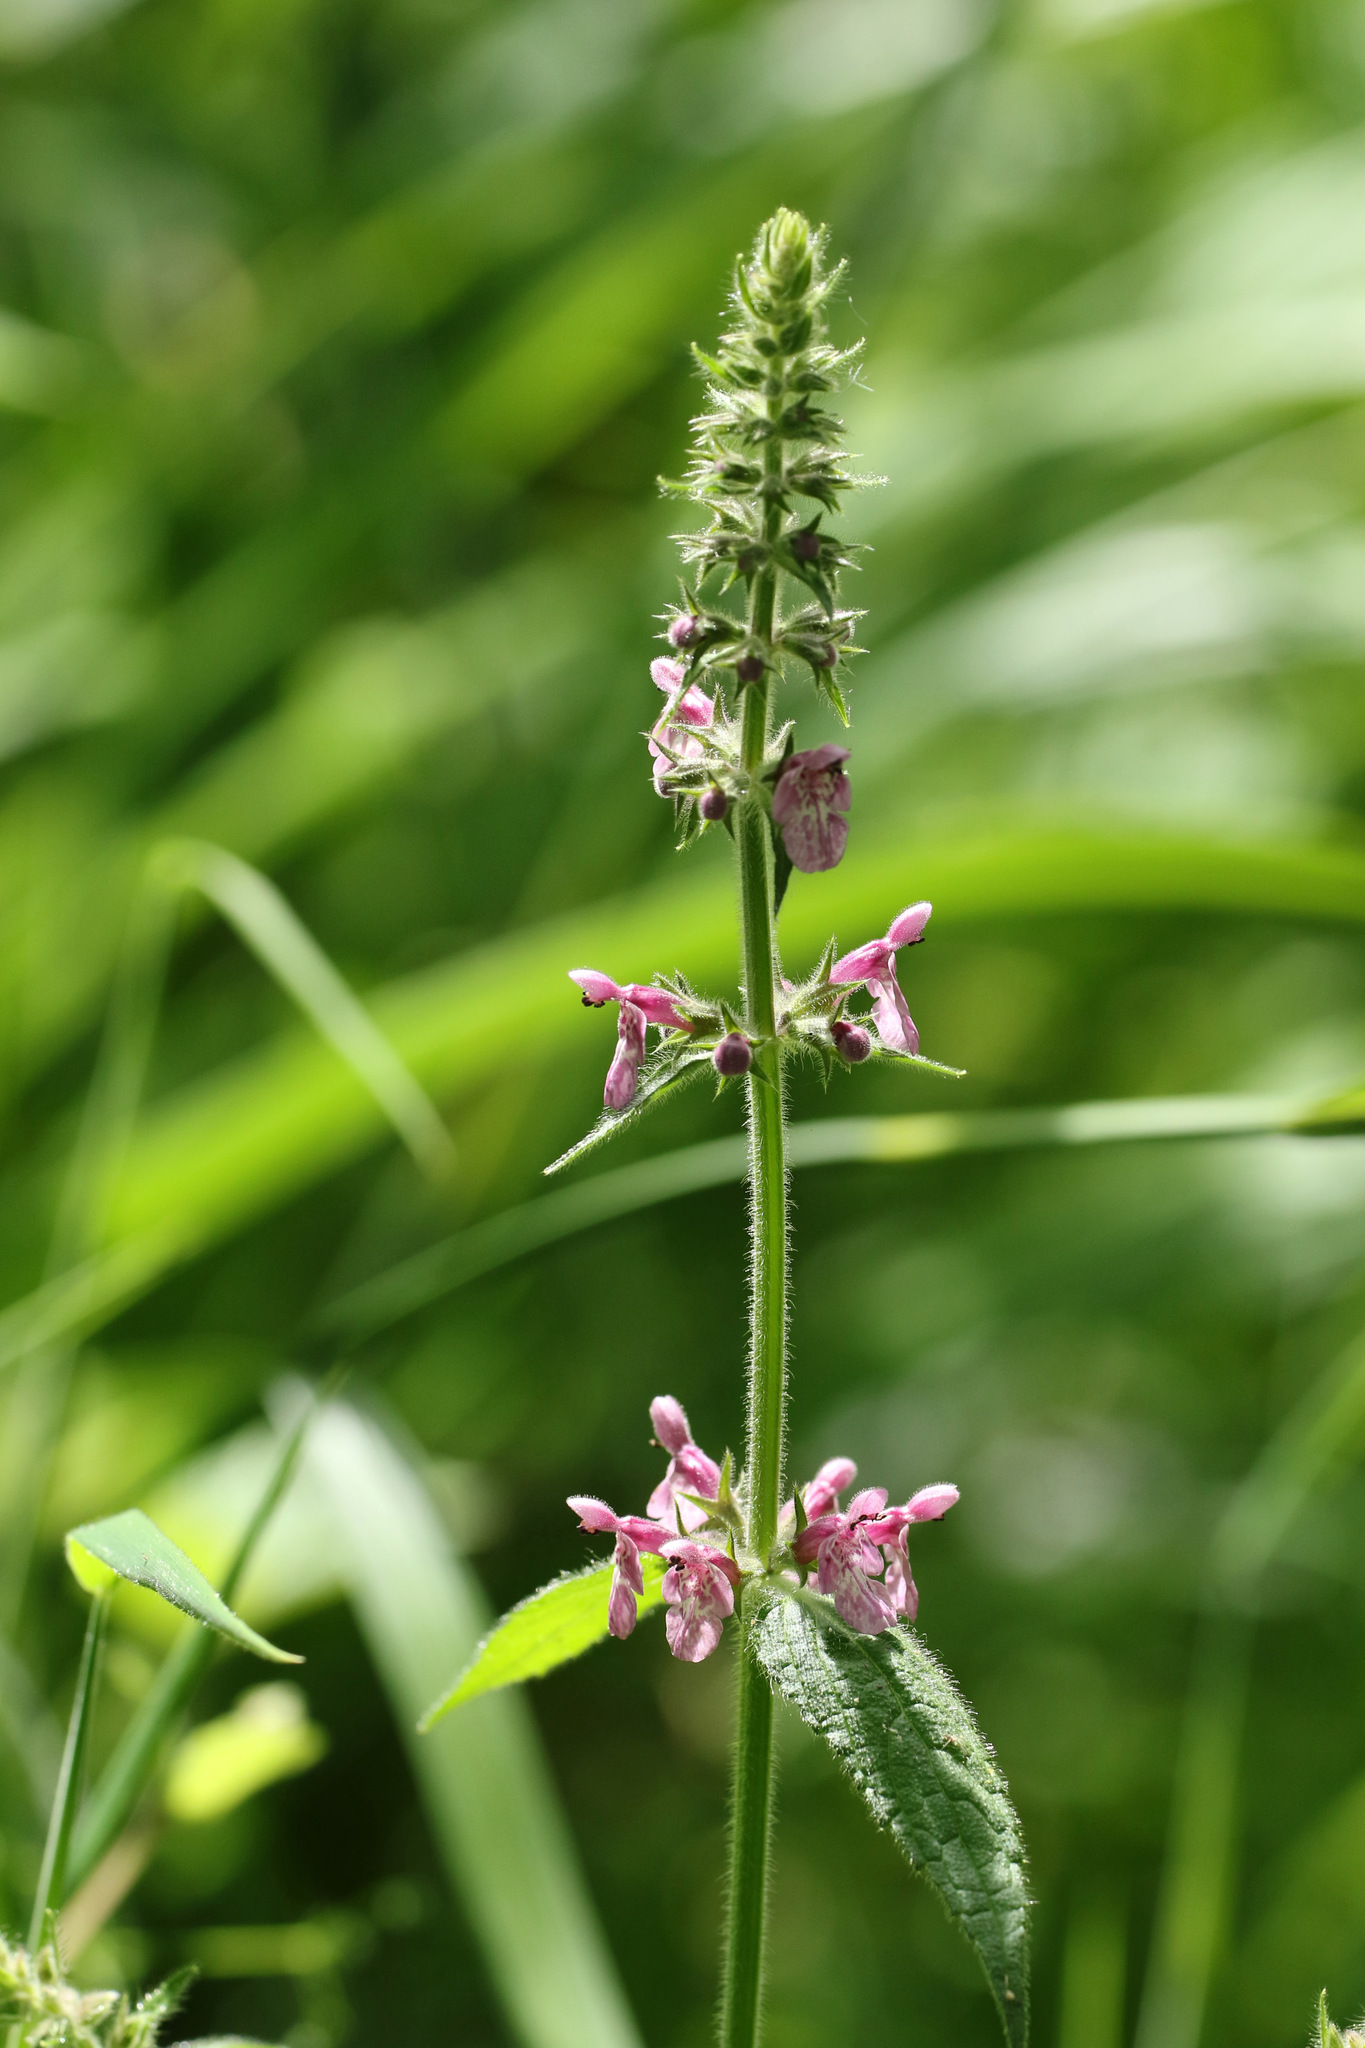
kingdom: Plantae
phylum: Tracheophyta
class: Magnoliopsida
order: Lamiales
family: Lamiaceae
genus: Stachys
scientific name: Stachys sylvatica
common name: Hedge woundwort
